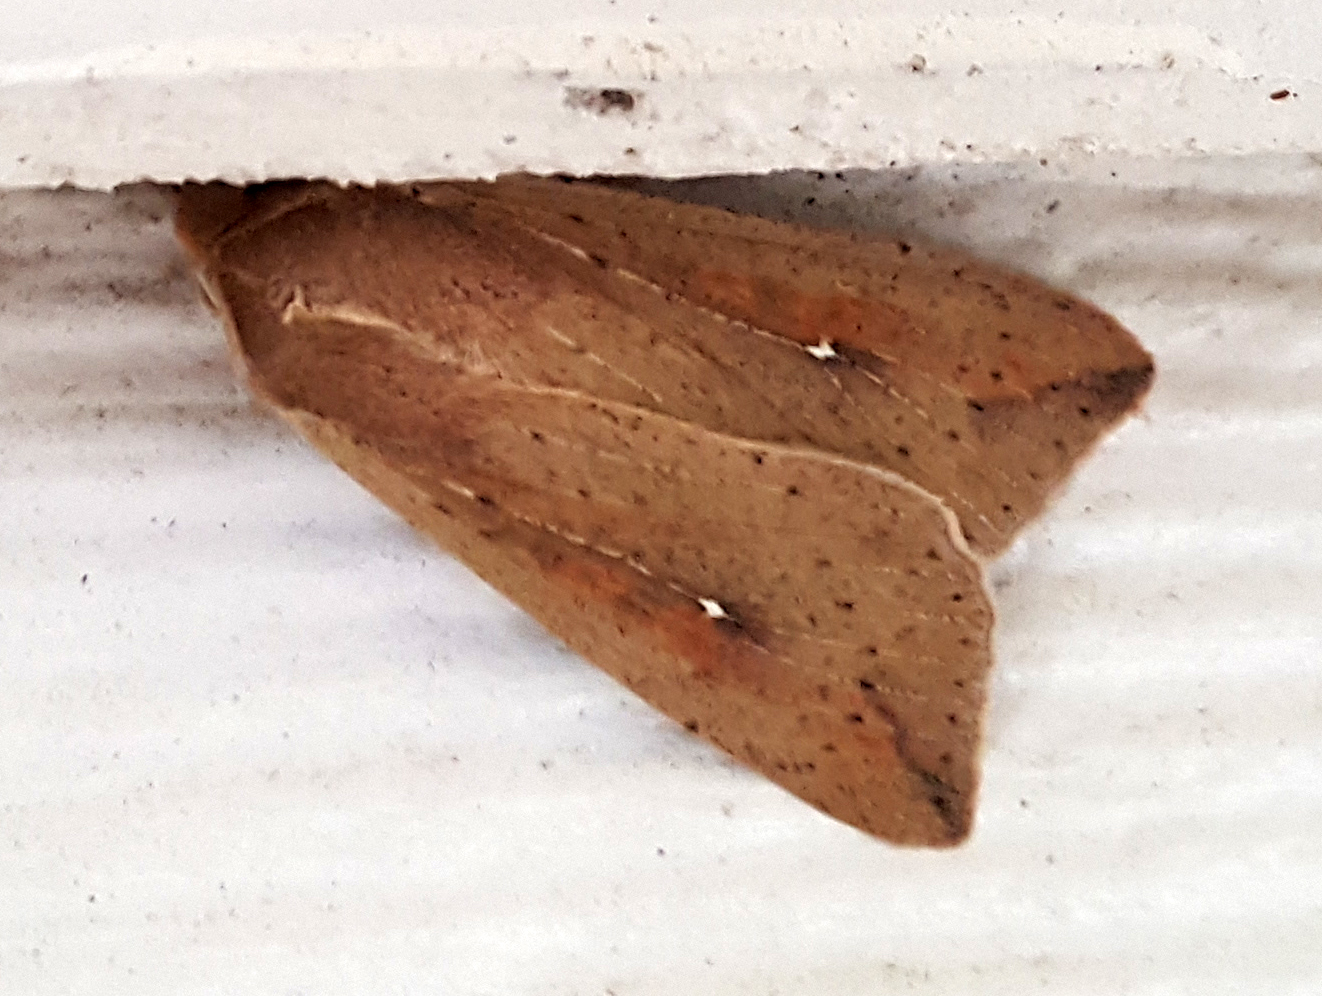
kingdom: Animalia
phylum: Arthropoda
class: Insecta
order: Lepidoptera
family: Noctuidae
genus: Mythimna
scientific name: Mythimna unipuncta
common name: White-speck
